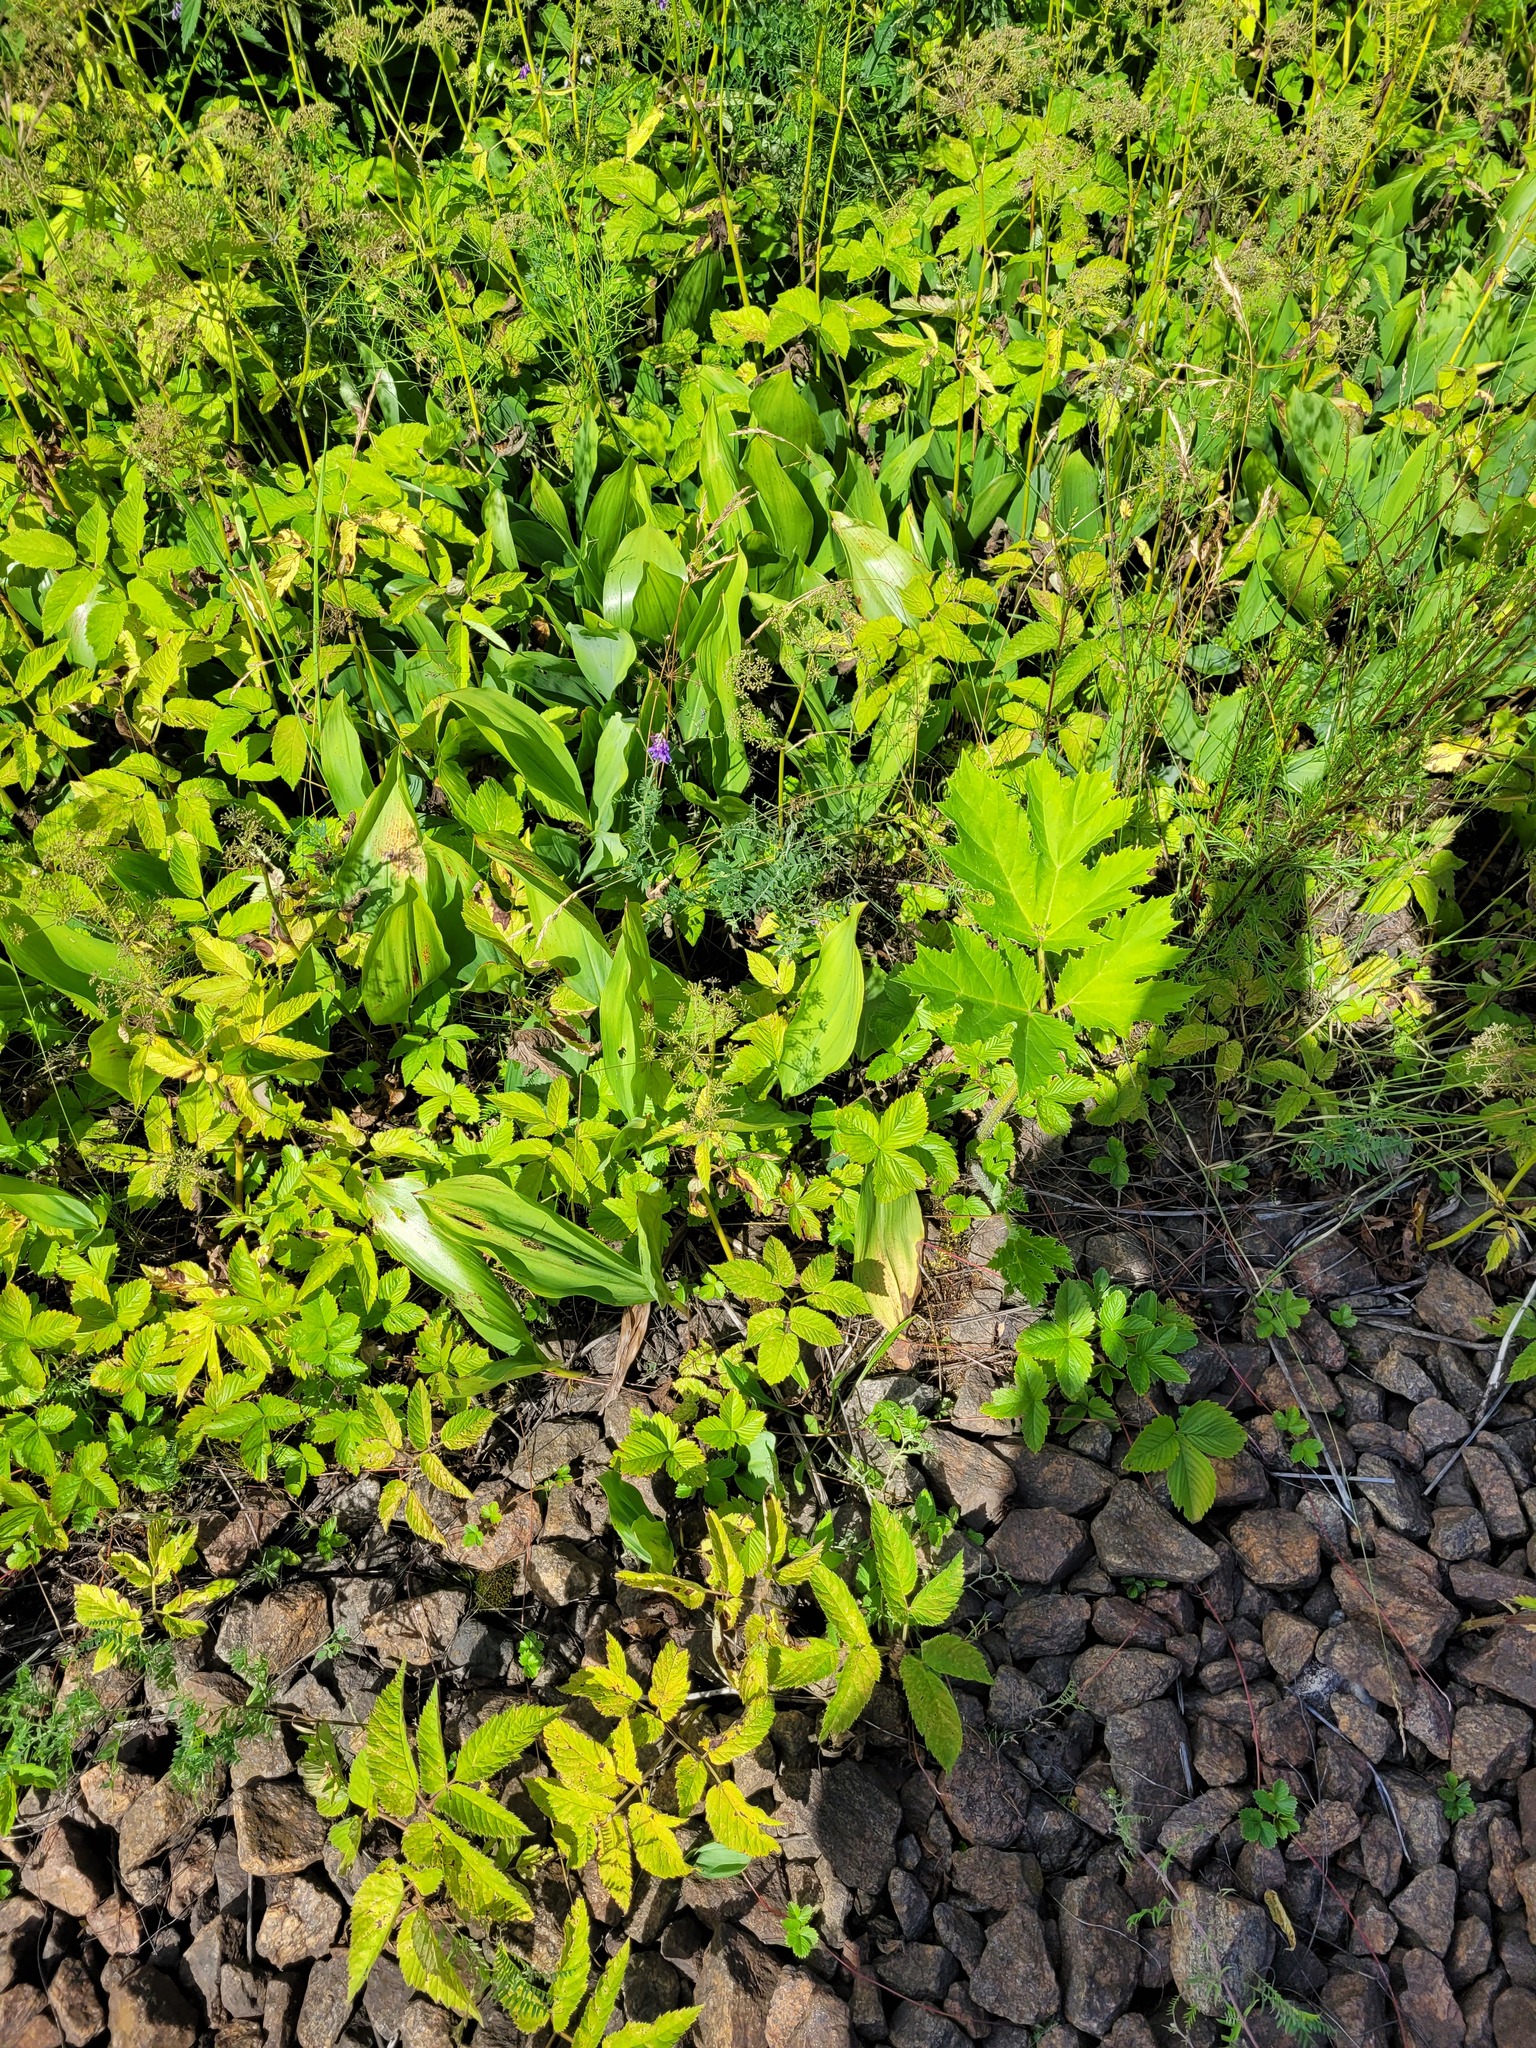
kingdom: Plantae
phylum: Tracheophyta
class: Liliopsida
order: Asparagales
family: Asparagaceae
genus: Convallaria
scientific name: Convallaria majalis
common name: Lily-of-the-valley
